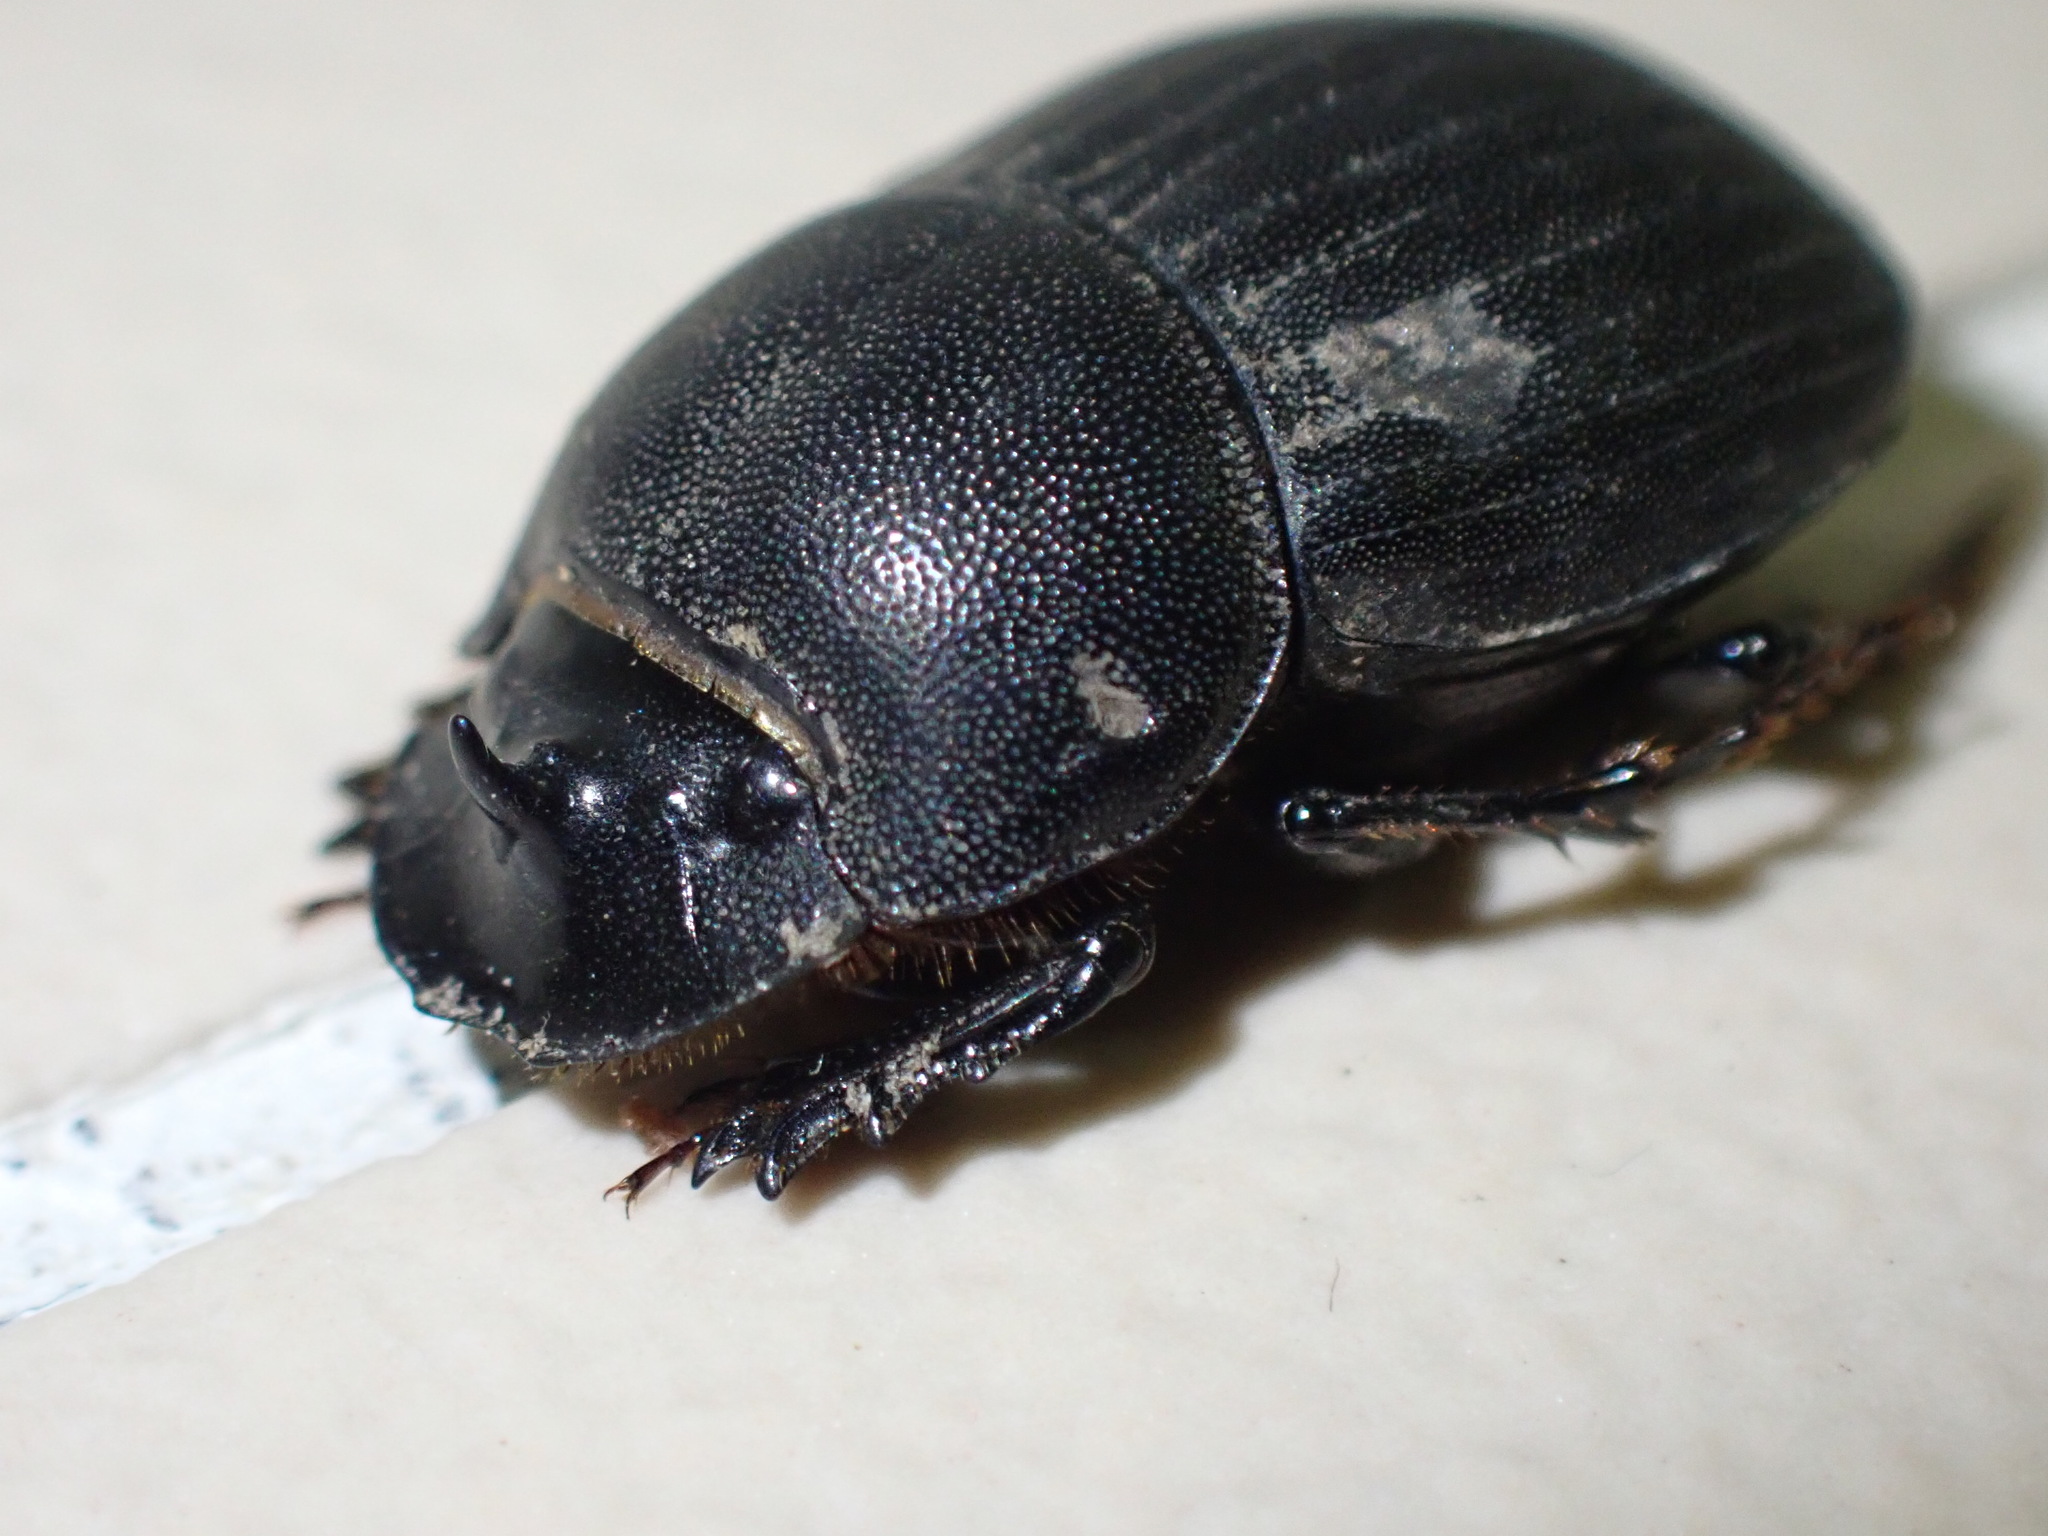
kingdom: Animalia
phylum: Arthropoda
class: Insecta
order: Coleoptera
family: Scarabaeidae
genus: Copris
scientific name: Copris fidius
